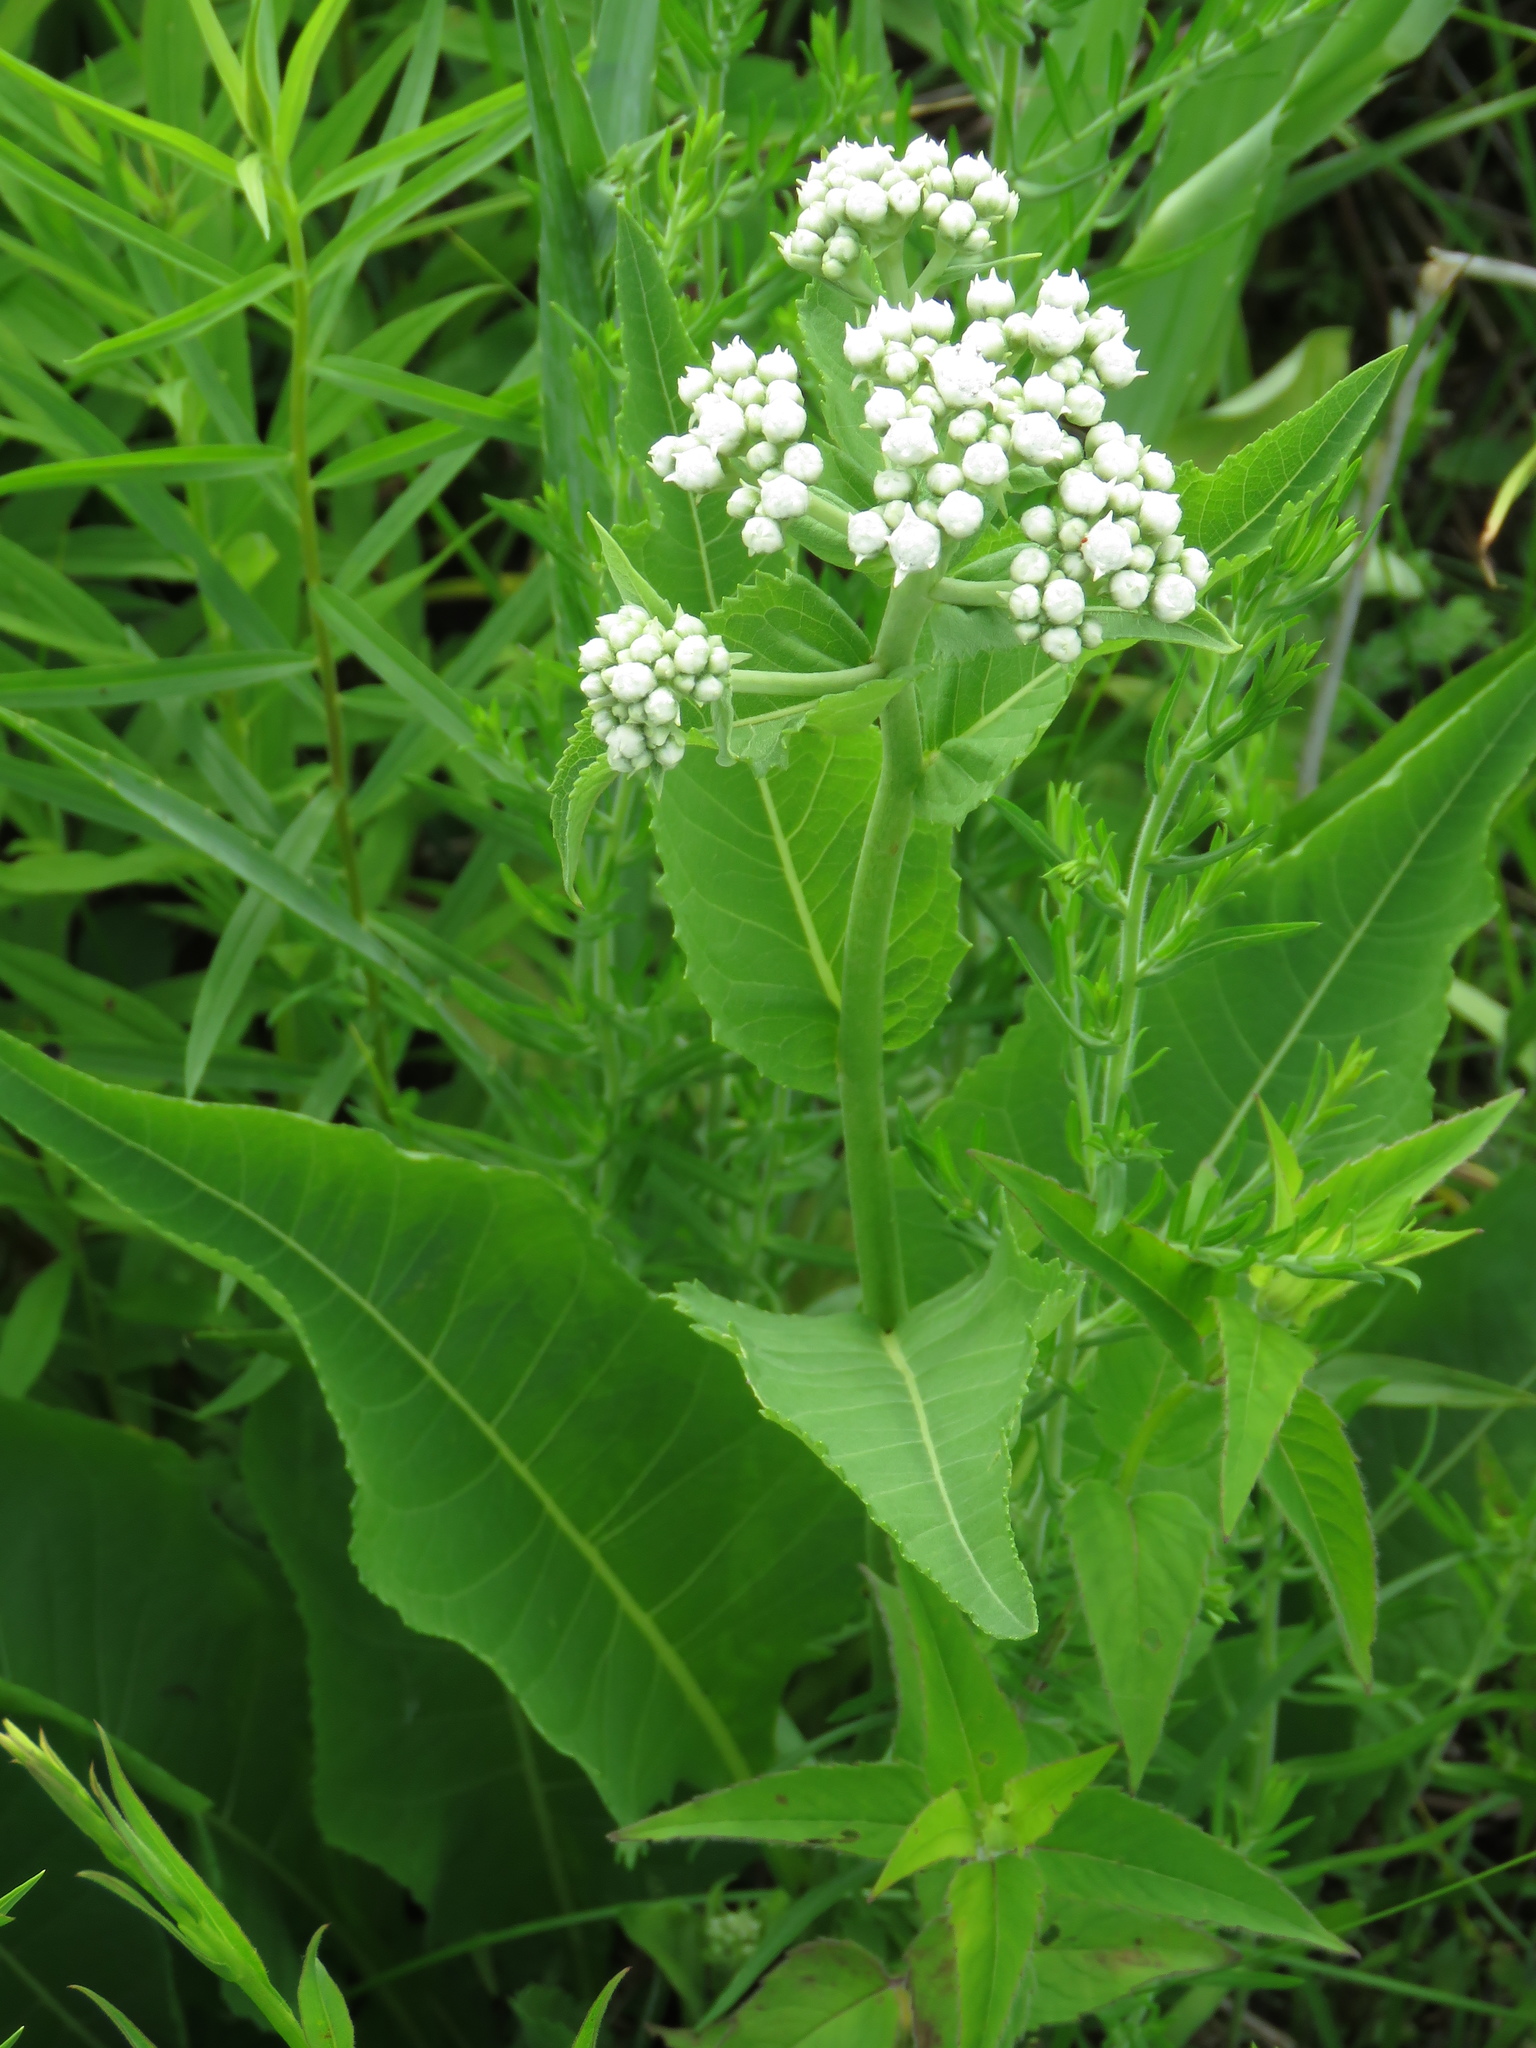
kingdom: Plantae
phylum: Tracheophyta
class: Magnoliopsida
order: Asterales
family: Asteraceae
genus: Parthenium
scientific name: Parthenium integrifolium
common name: American feverfew
